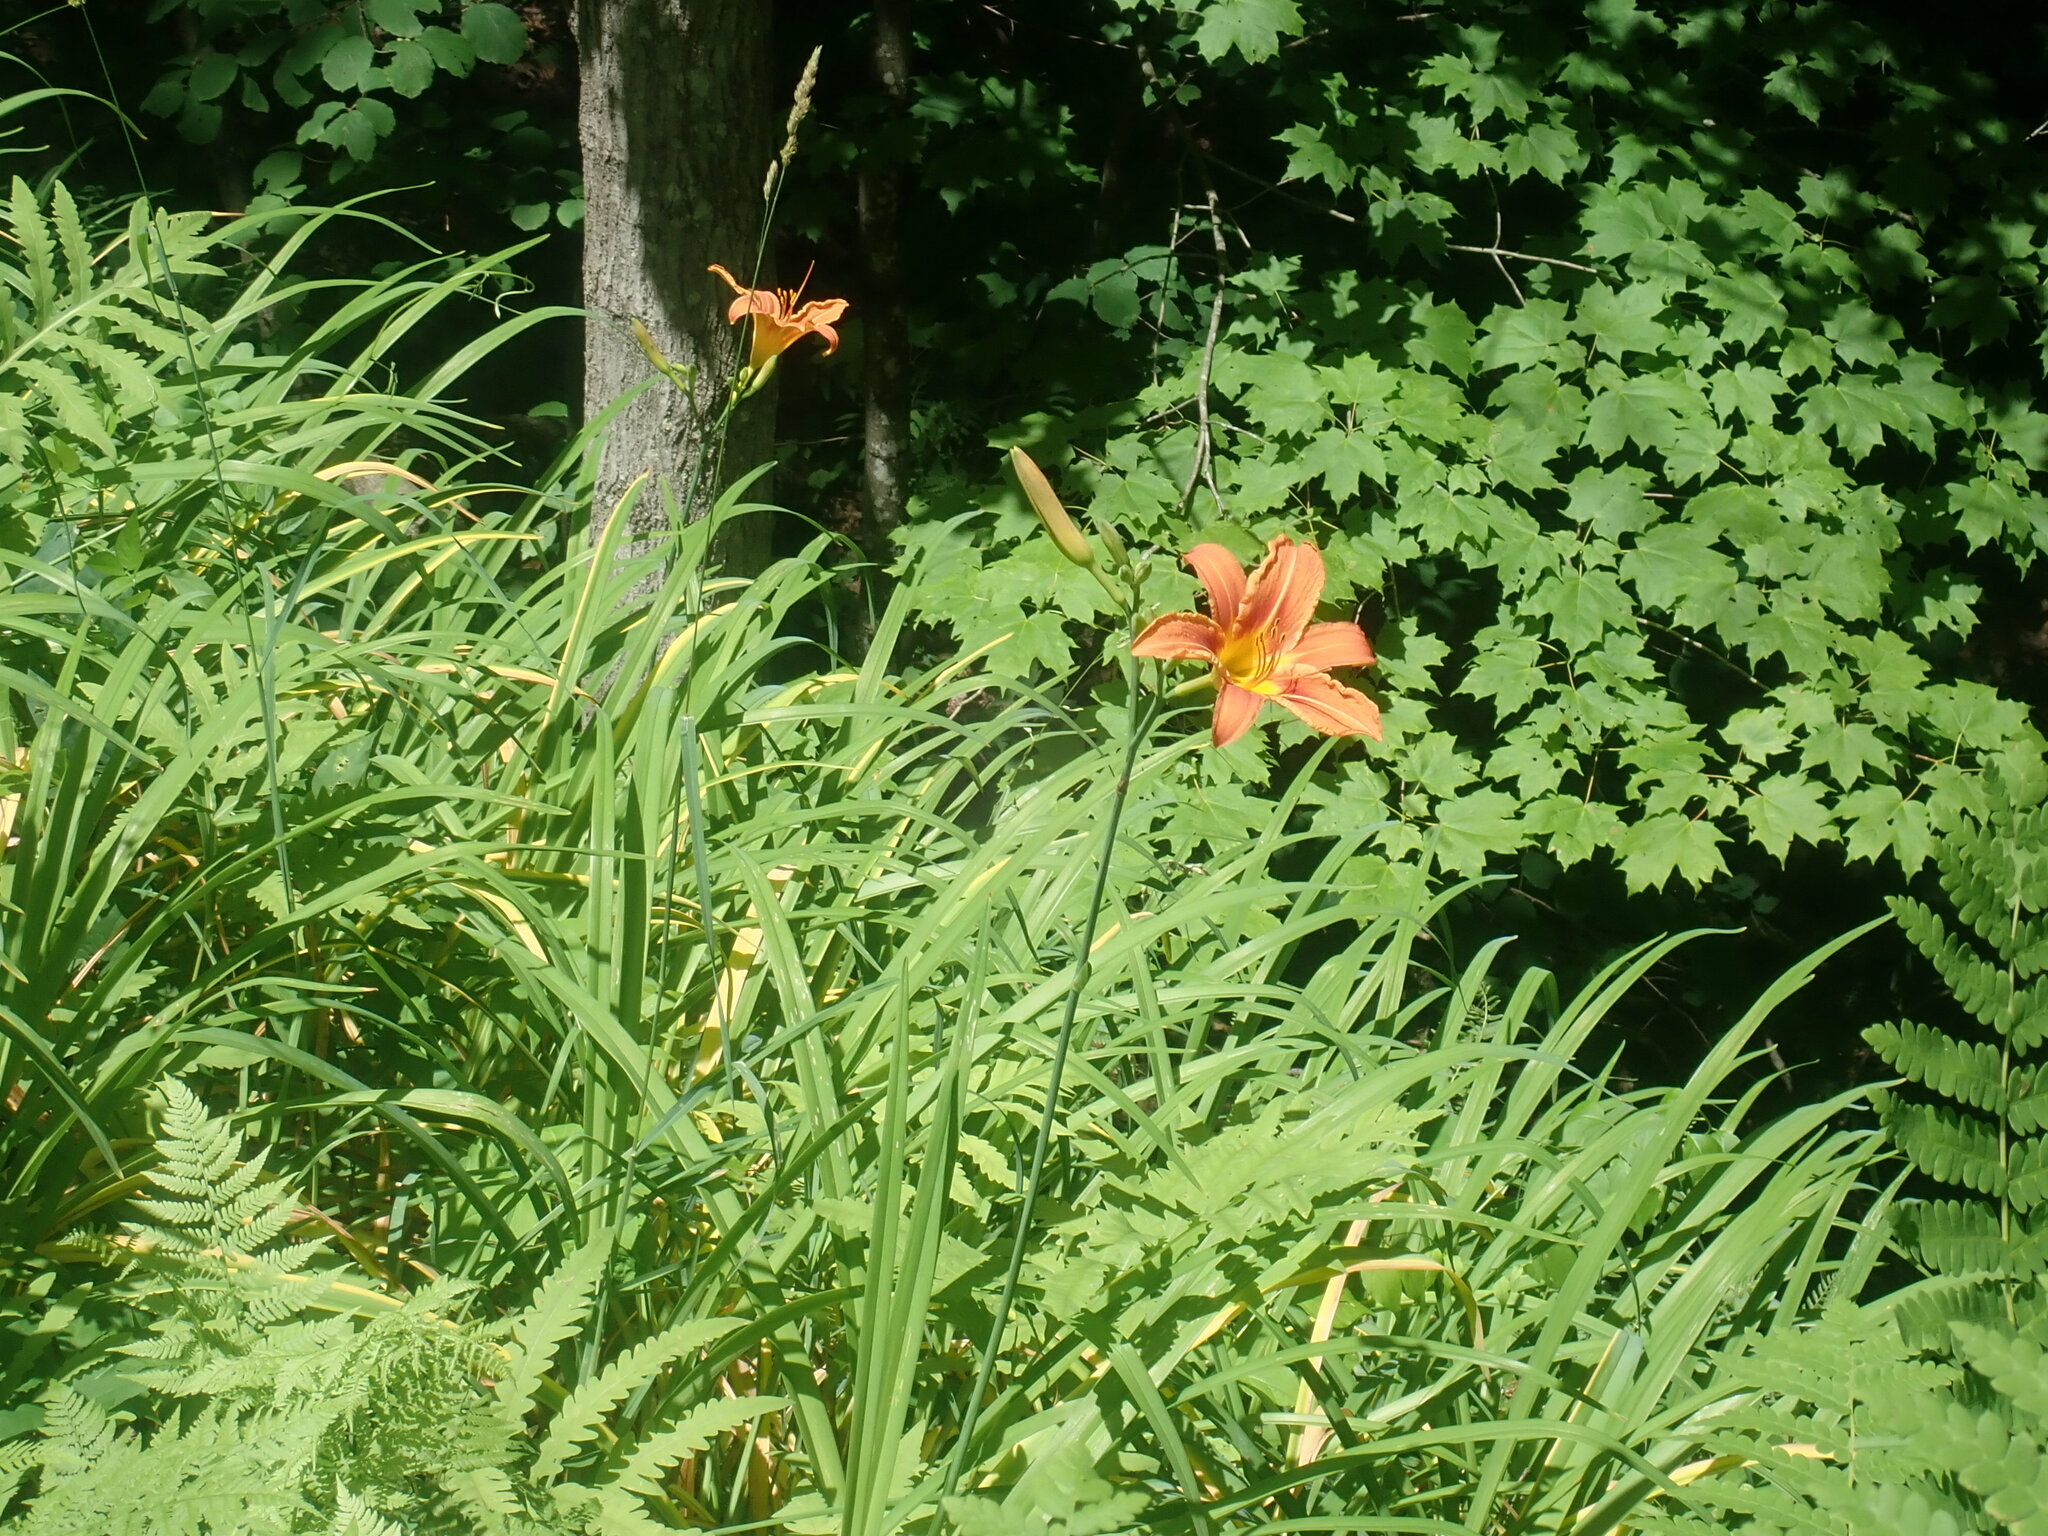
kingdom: Plantae
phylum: Tracheophyta
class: Liliopsida
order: Asparagales
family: Asphodelaceae
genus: Hemerocallis
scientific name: Hemerocallis fulva
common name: Orange day-lily
